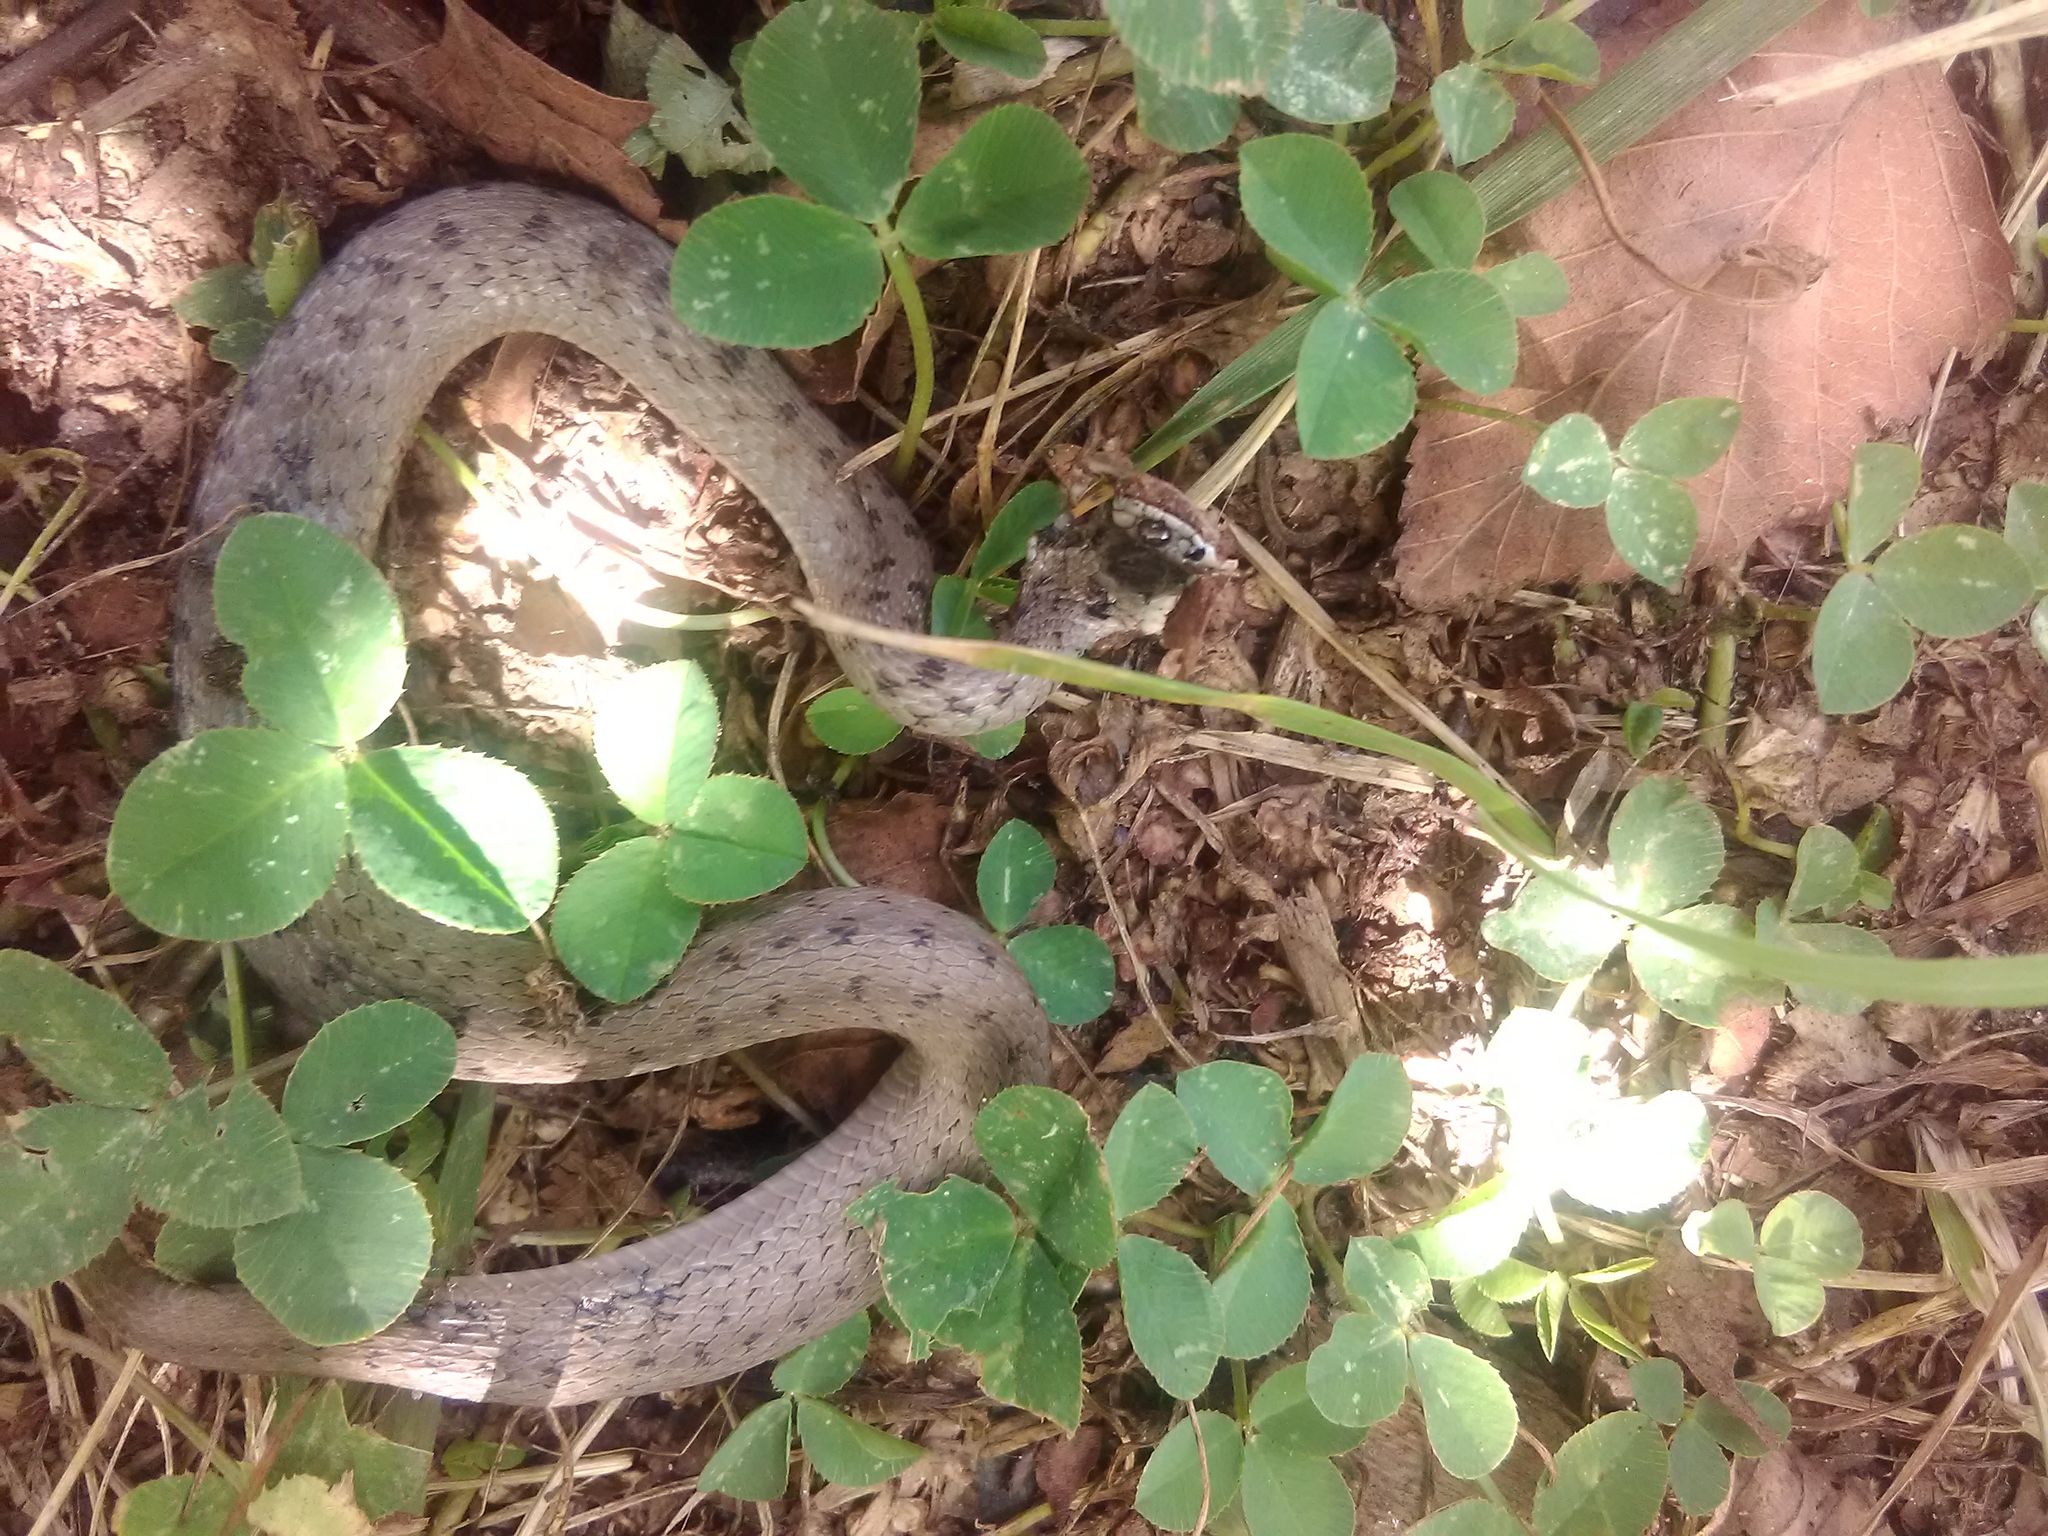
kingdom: Animalia
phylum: Chordata
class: Squamata
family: Colubridae
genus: Storeria
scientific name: Storeria dekayi
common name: (dekay’s) brown snake
